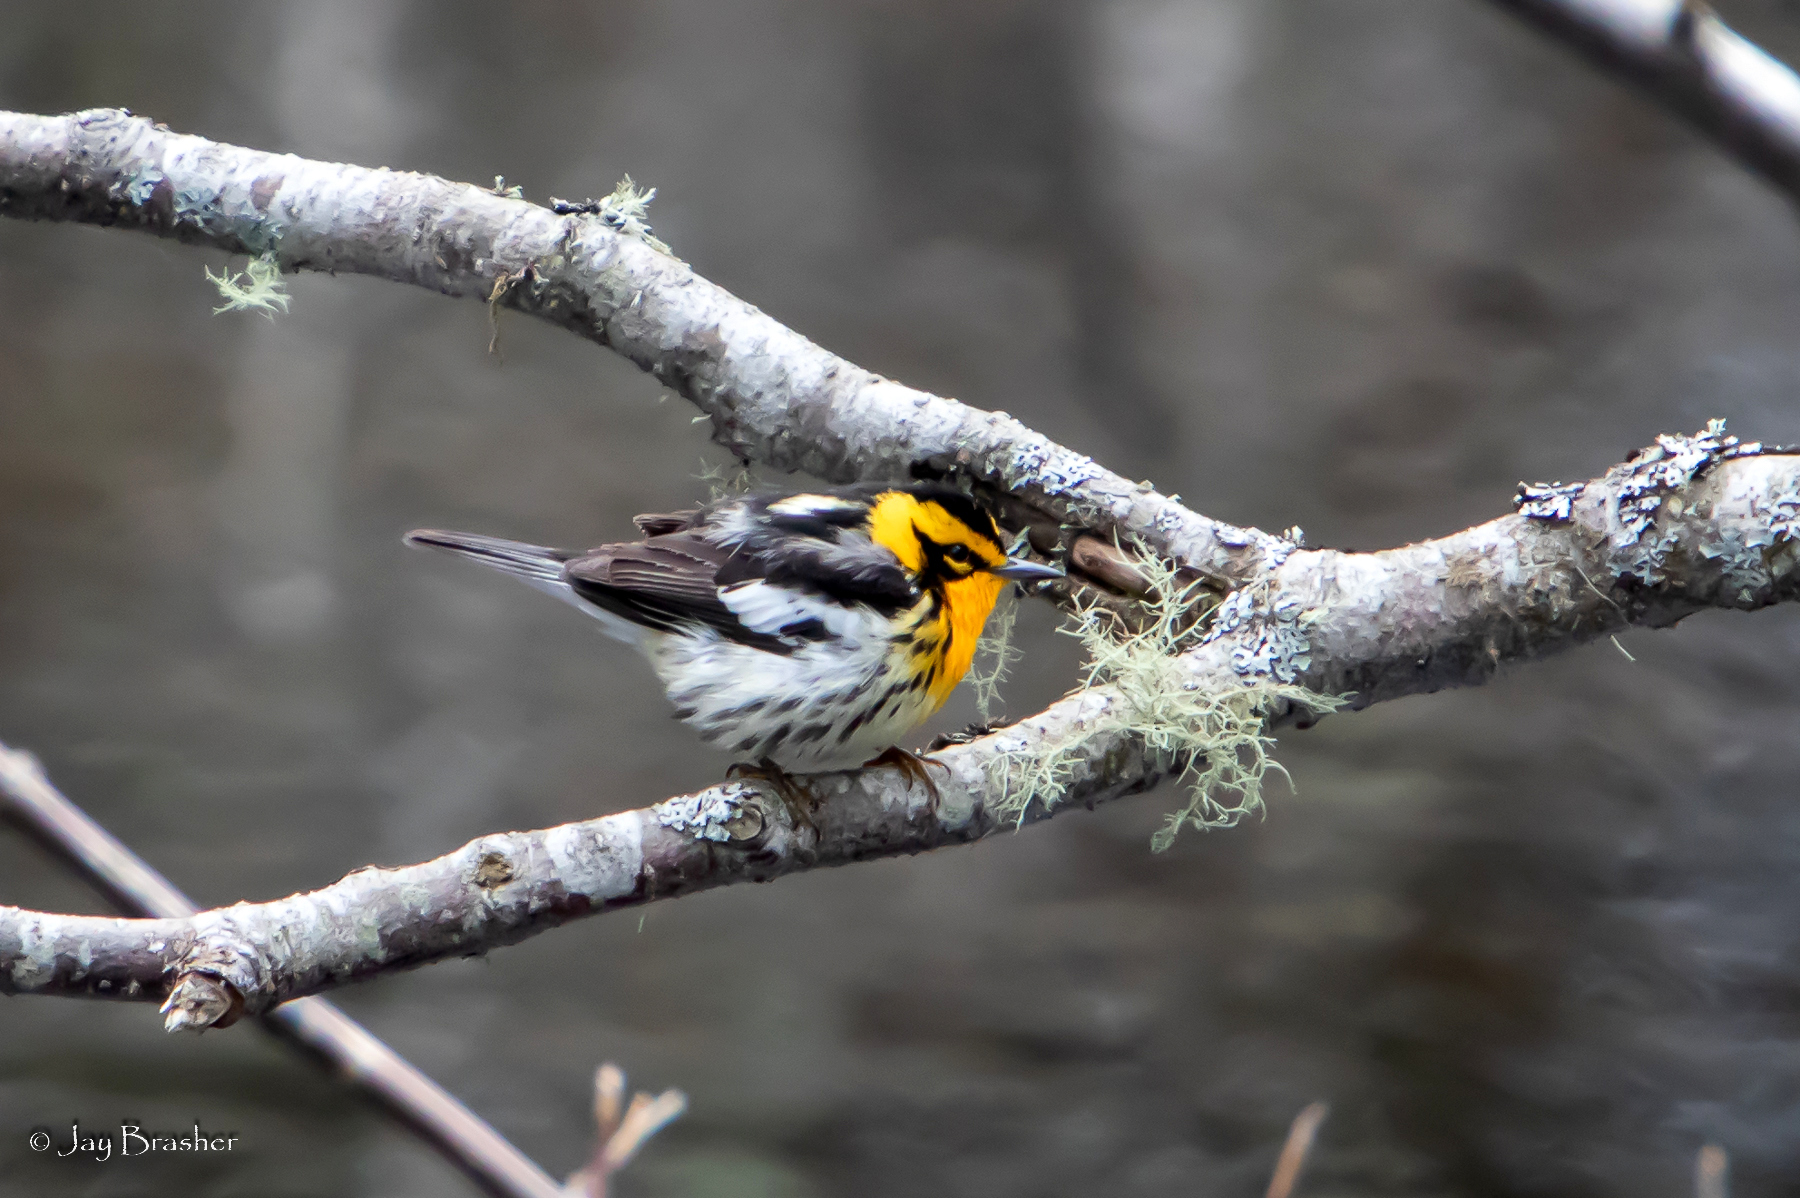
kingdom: Animalia
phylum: Chordata
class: Aves
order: Passeriformes
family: Parulidae
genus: Setophaga
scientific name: Setophaga fusca
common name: Blackburnian warbler
